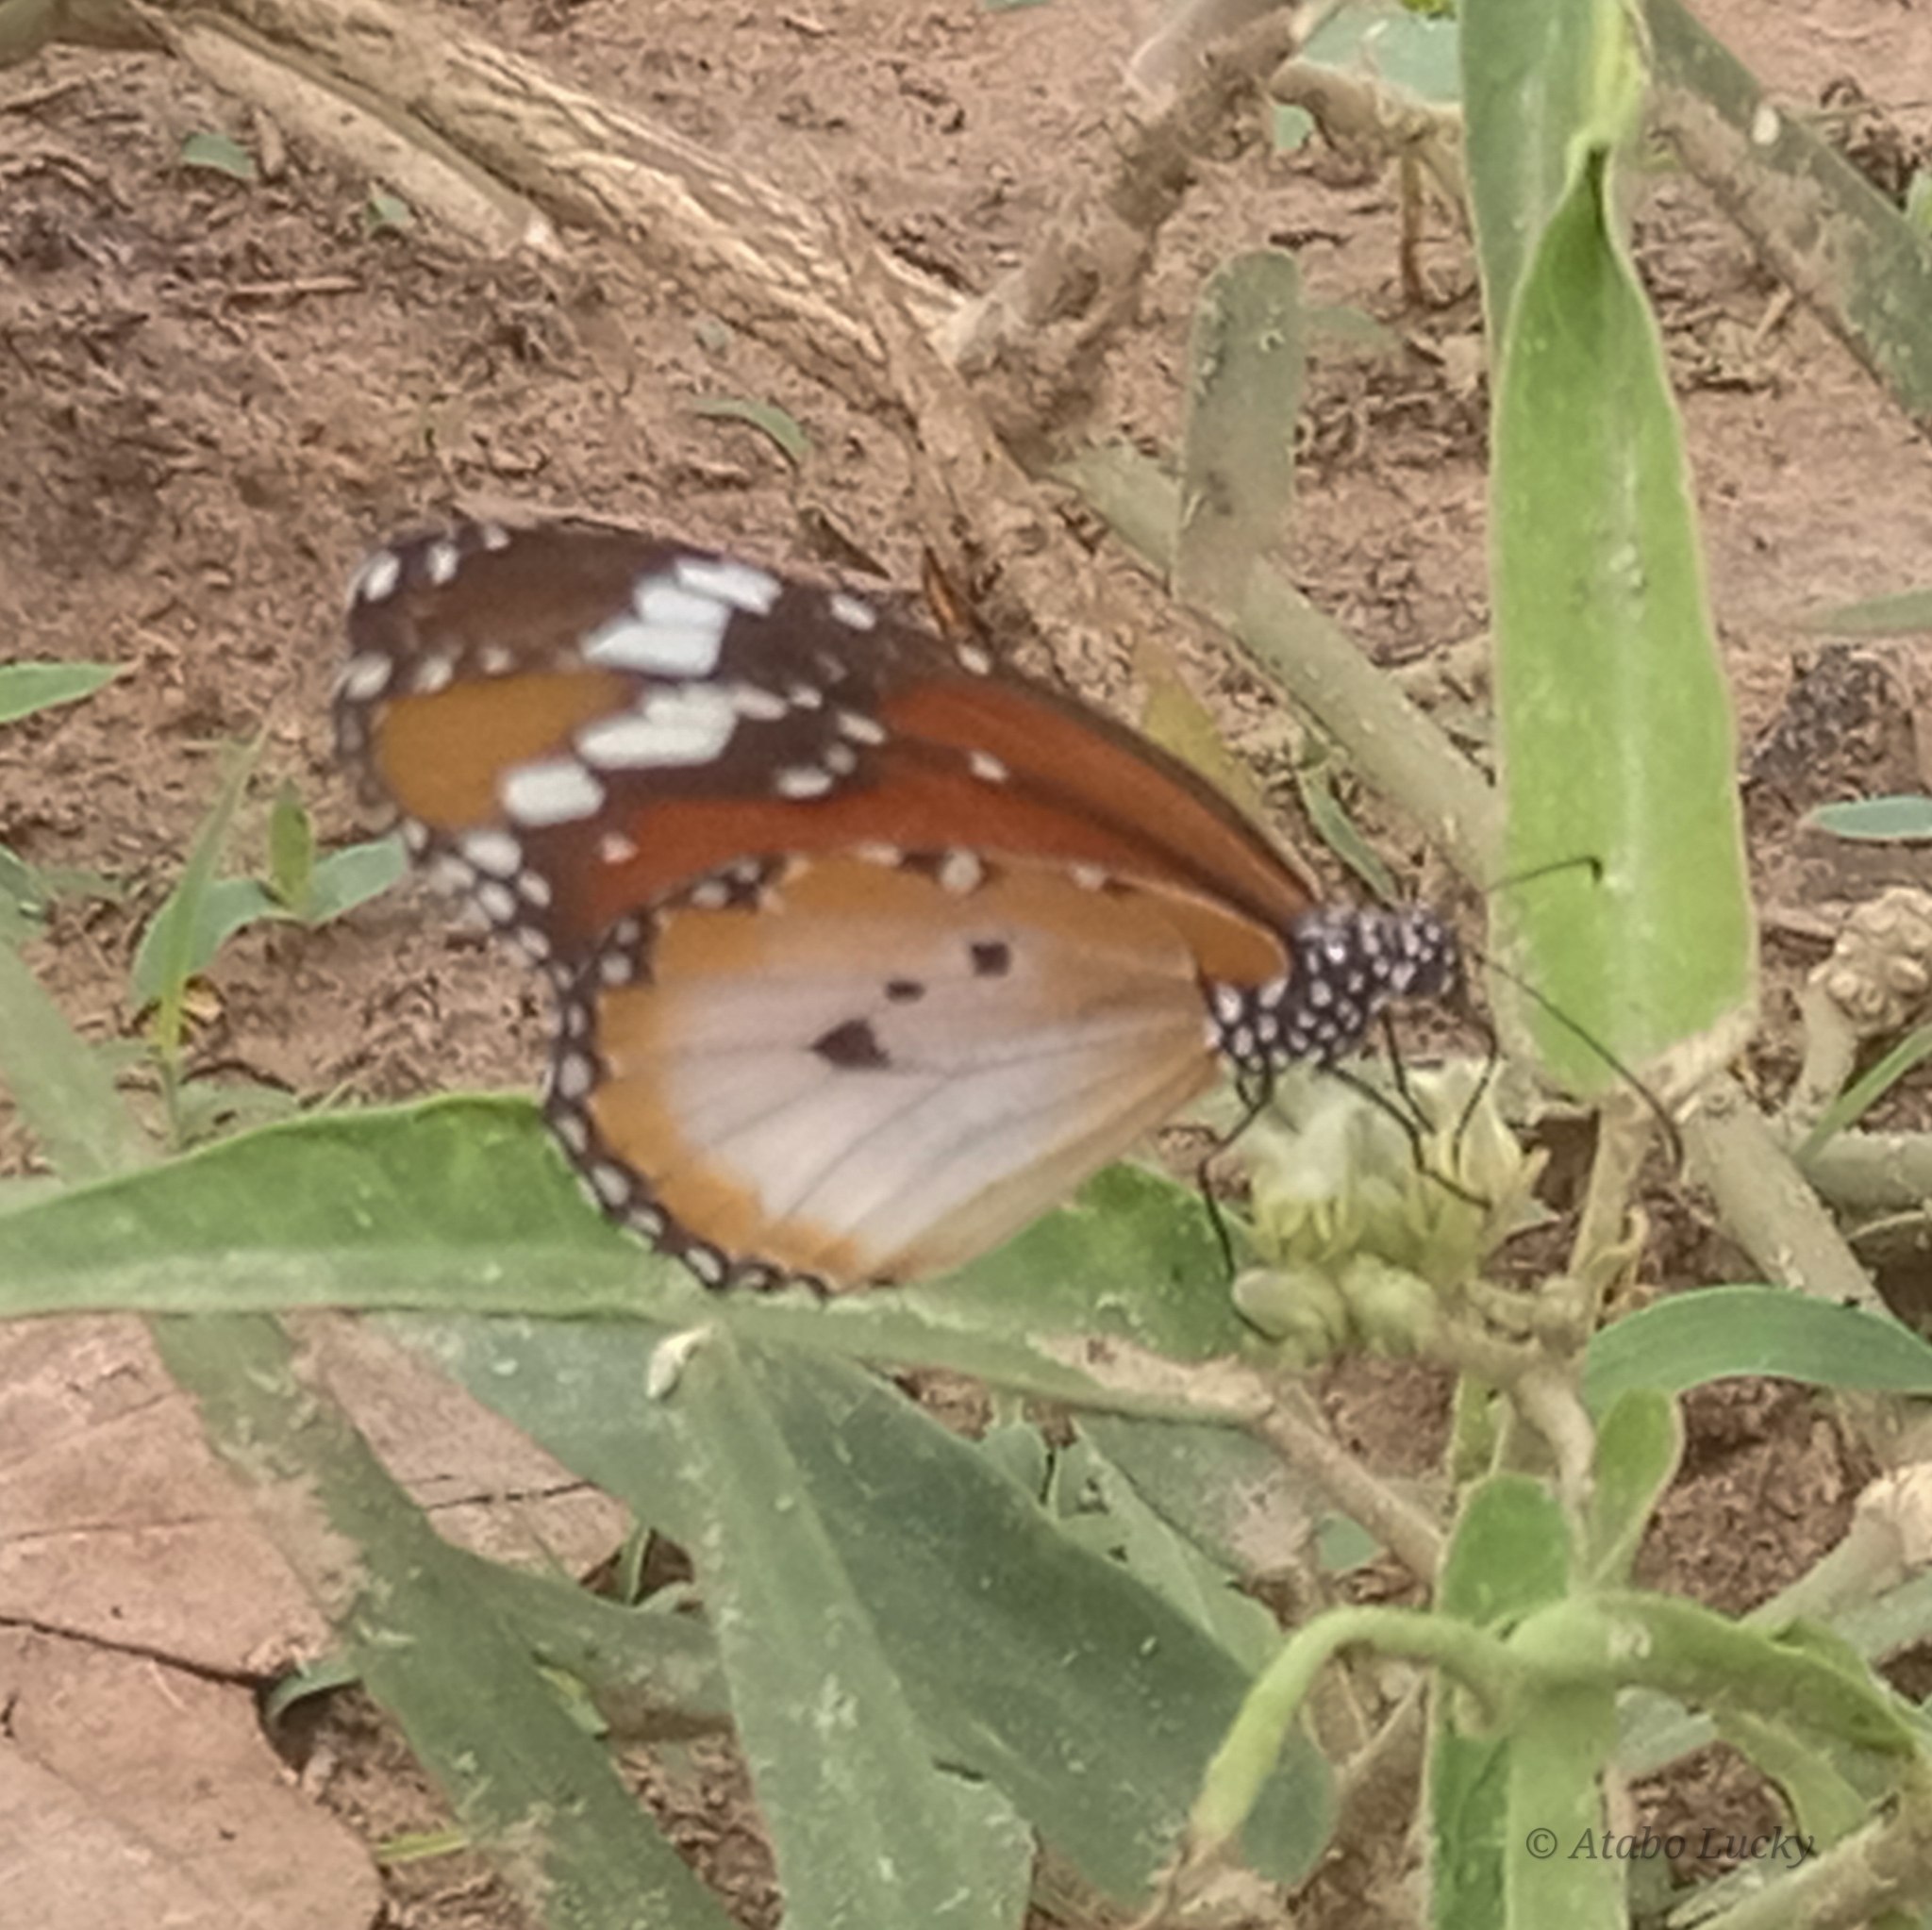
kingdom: Animalia
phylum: Arthropoda
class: Insecta
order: Lepidoptera
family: Nymphalidae
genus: Danaus
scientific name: Danaus chrysippus
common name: Plain tiger
